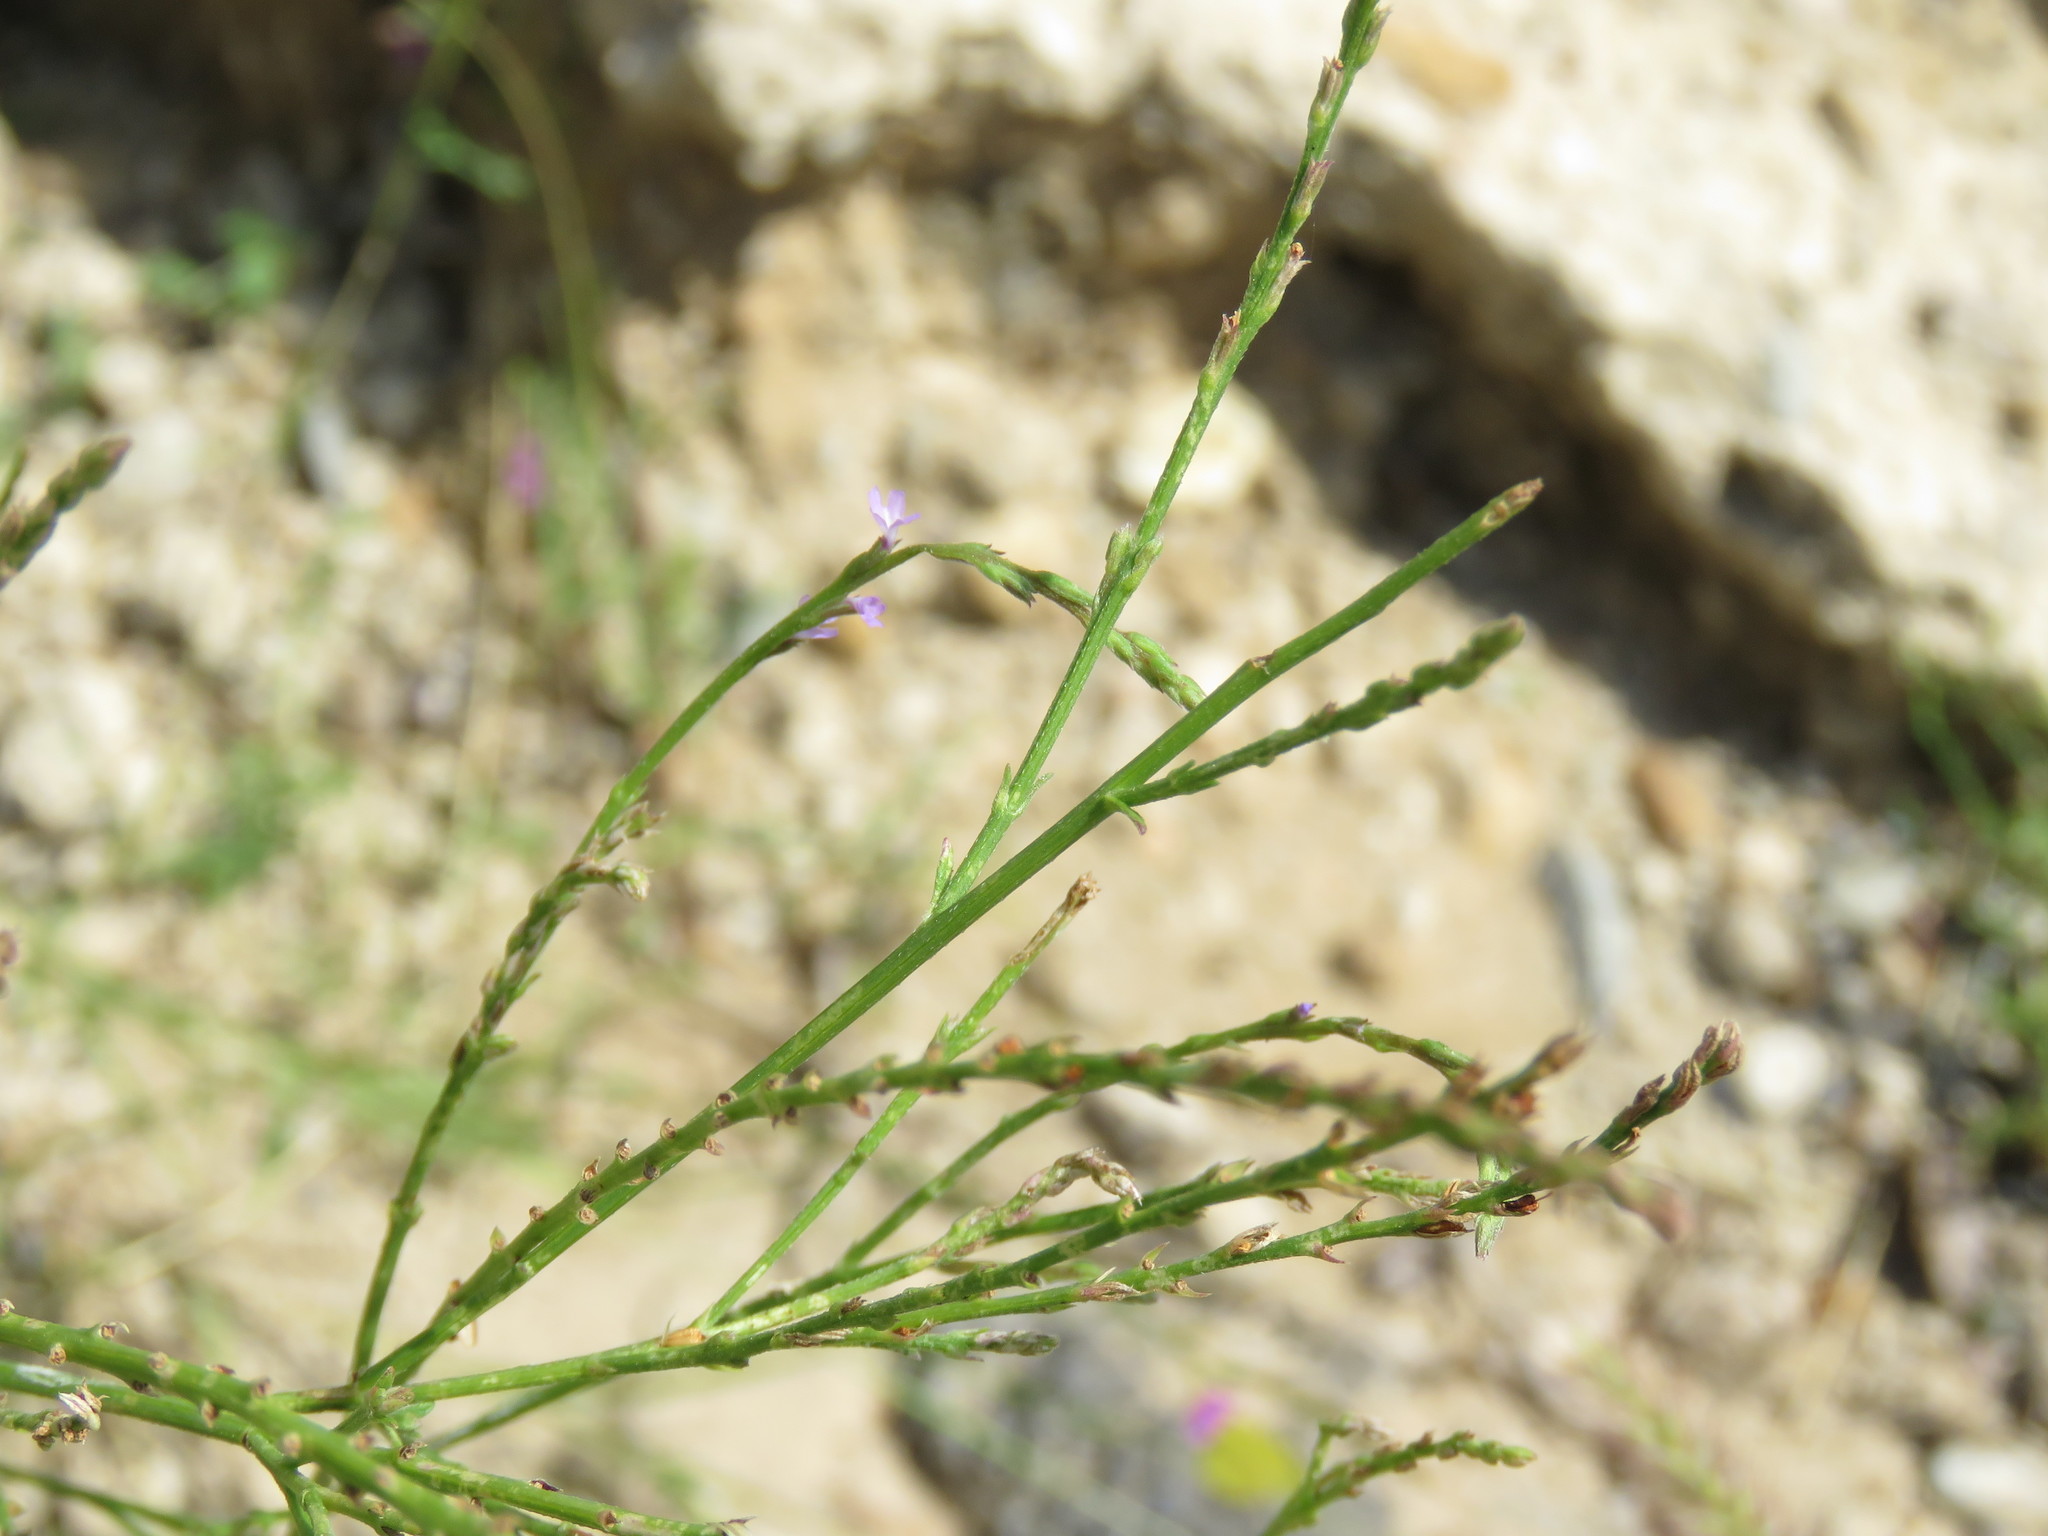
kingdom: Plantae
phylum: Tracheophyta
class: Magnoliopsida
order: Lamiales
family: Verbenaceae
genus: Verbena
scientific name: Verbena halei
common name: Texas vervain
